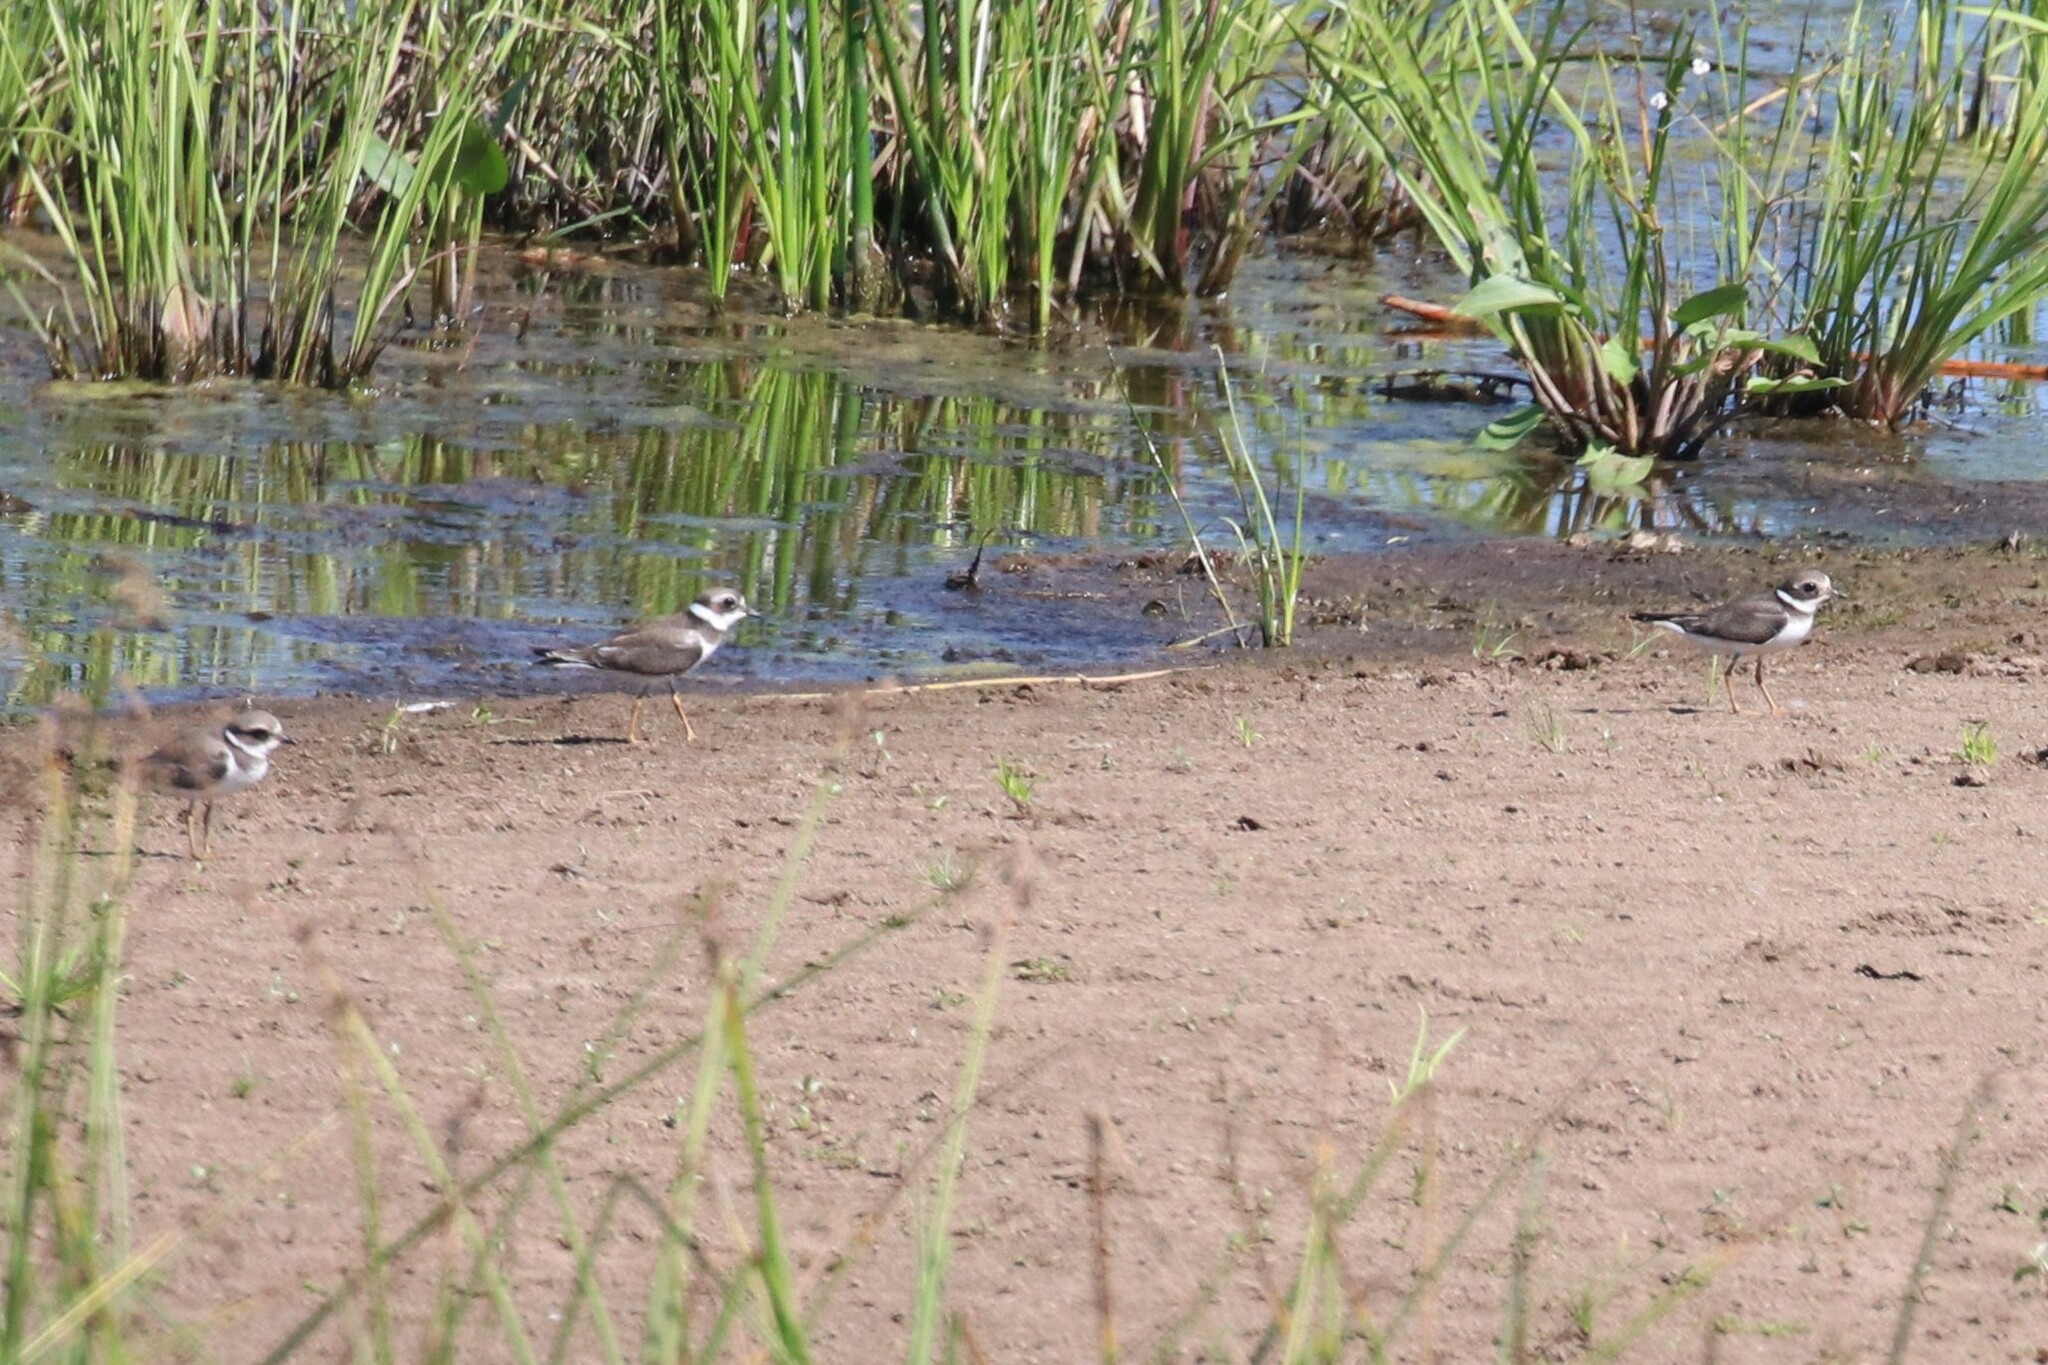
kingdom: Animalia
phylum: Chordata
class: Aves
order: Charadriiformes
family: Charadriidae
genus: Charadrius
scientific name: Charadrius hiaticula
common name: Common ringed plover
